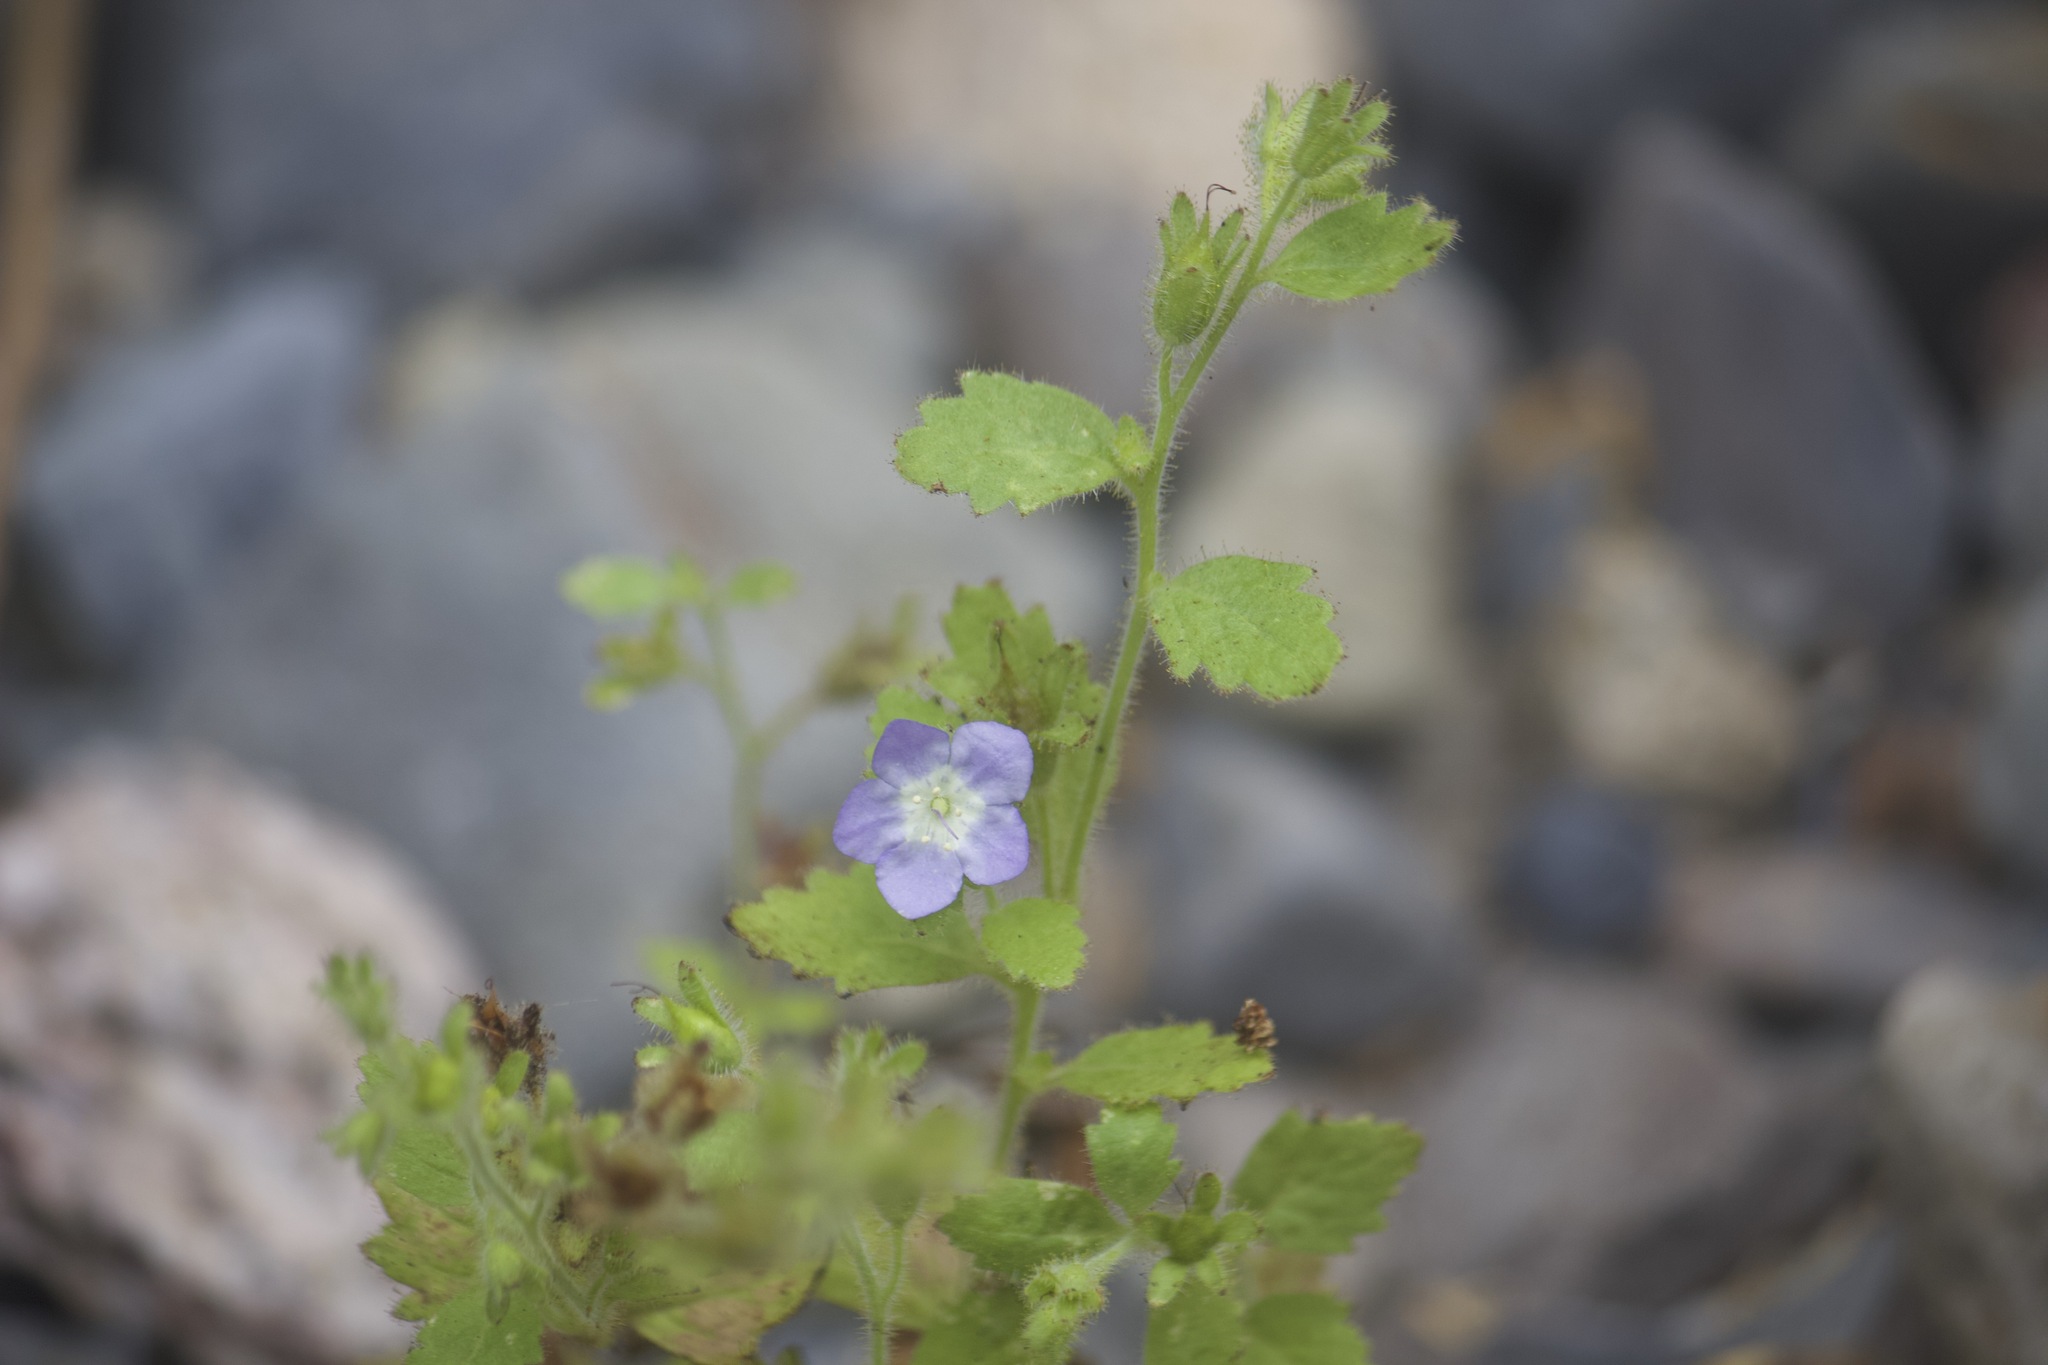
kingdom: Plantae
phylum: Tracheophyta
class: Magnoliopsida
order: Boraginales
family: Hydrophyllaceae
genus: Phacelia
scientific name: Phacelia viscida
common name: Sticky phacelia
